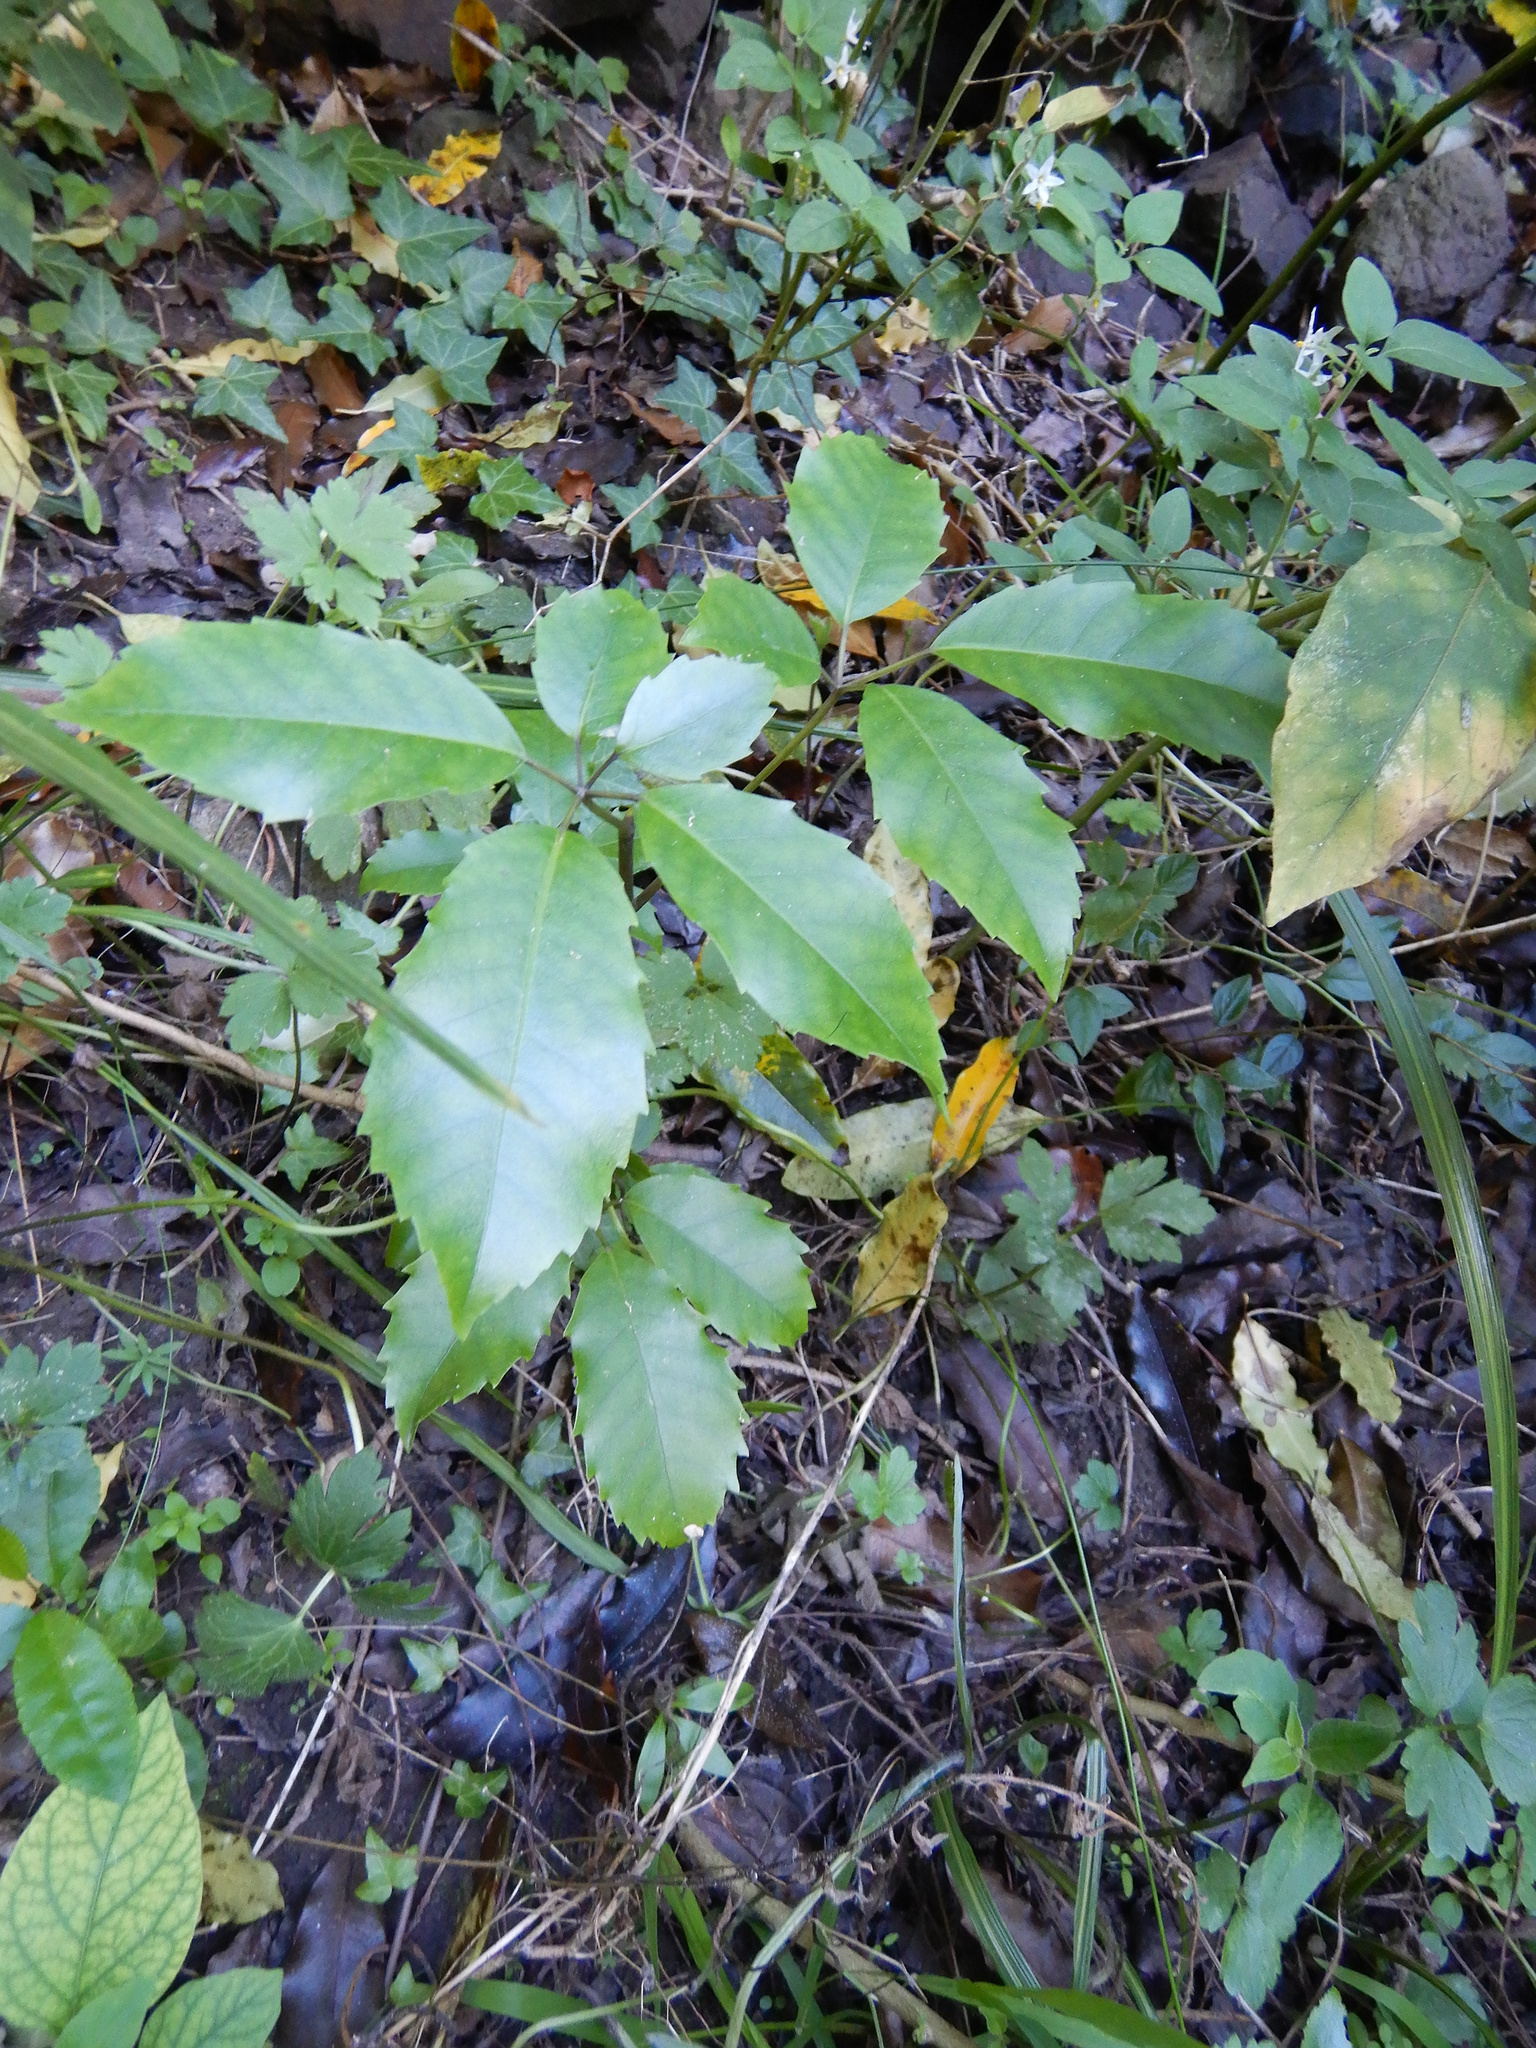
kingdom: Plantae
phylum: Tracheophyta
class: Magnoliopsida
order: Apiales
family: Araliaceae
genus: Neopanax
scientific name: Neopanax arboreus
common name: Five-fingers
